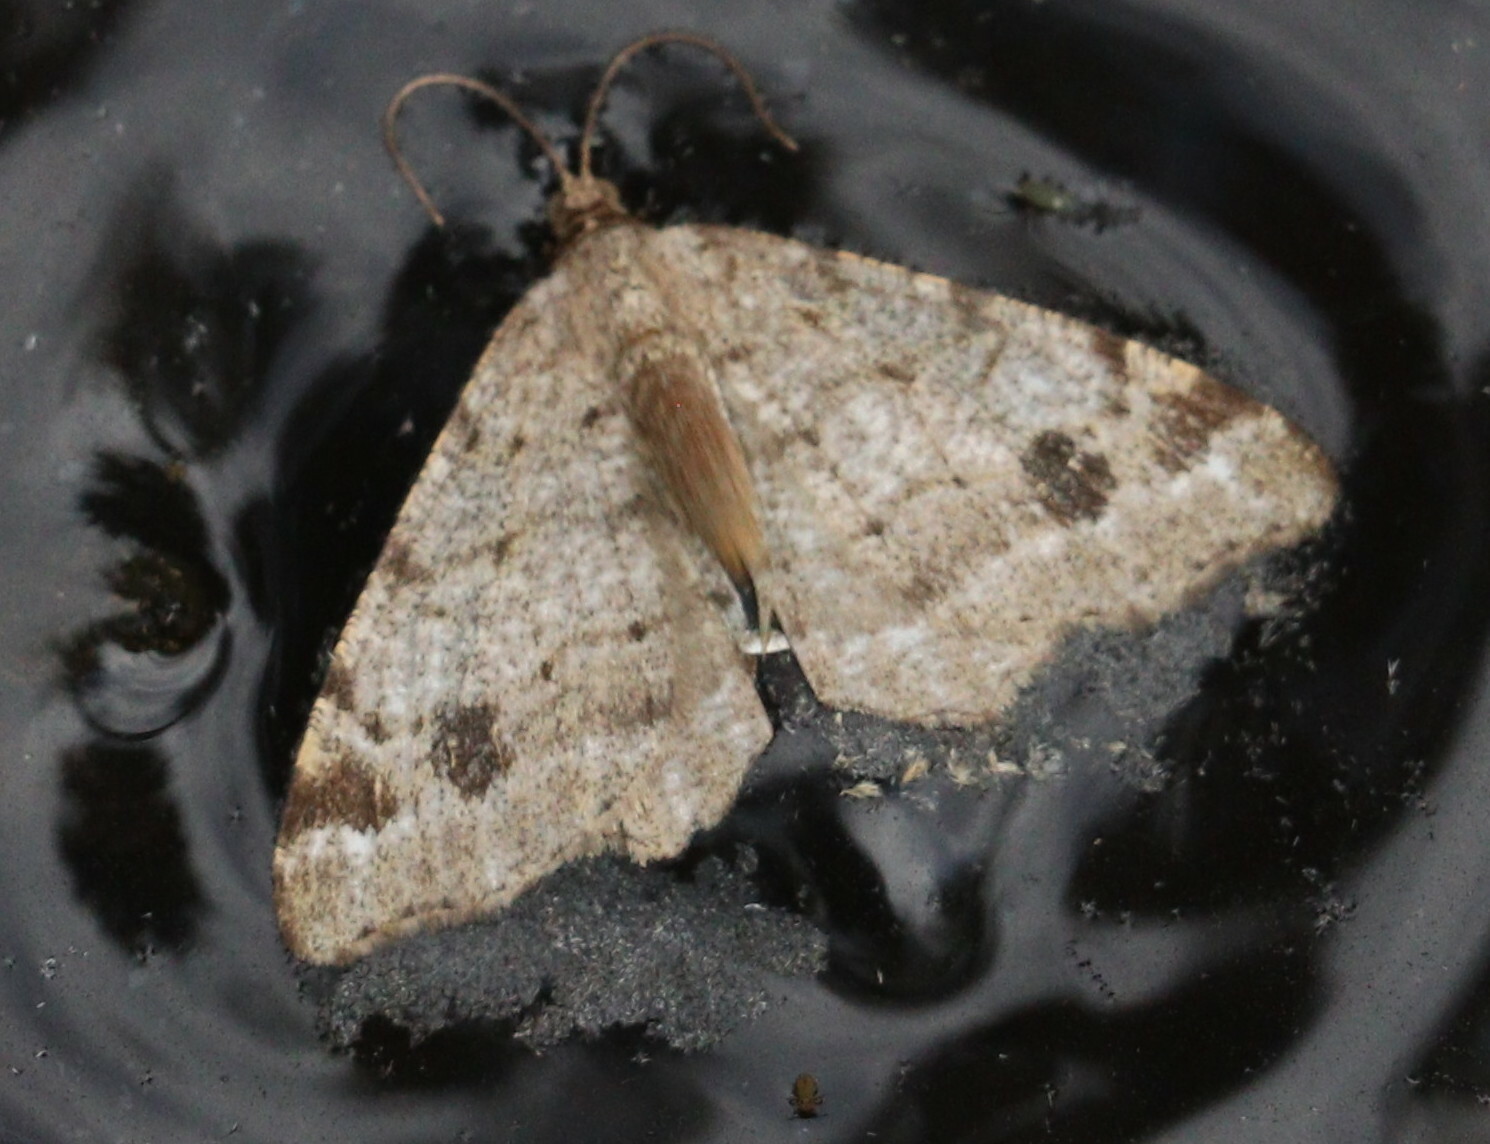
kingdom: Animalia
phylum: Arthropoda
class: Insecta
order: Lepidoptera
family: Geometridae
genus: Macaria
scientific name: Macaria signaria
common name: Dusky peacock
